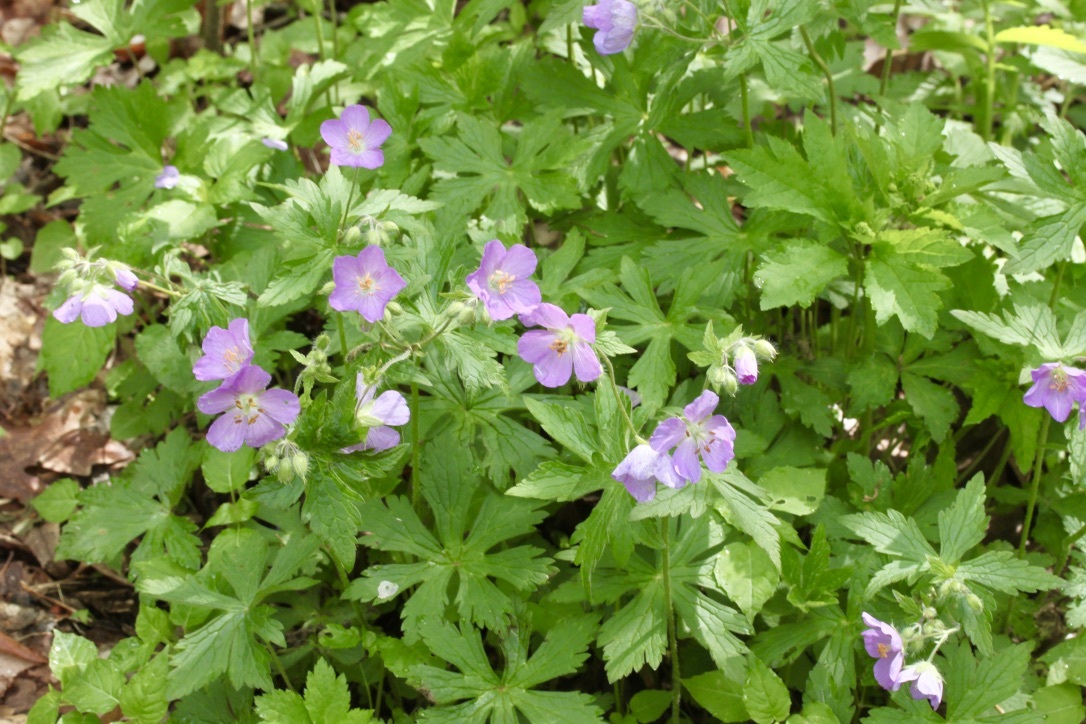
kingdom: Plantae
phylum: Tracheophyta
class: Magnoliopsida
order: Geraniales
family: Geraniaceae
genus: Geranium
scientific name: Geranium maculatum
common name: Spotted geranium
